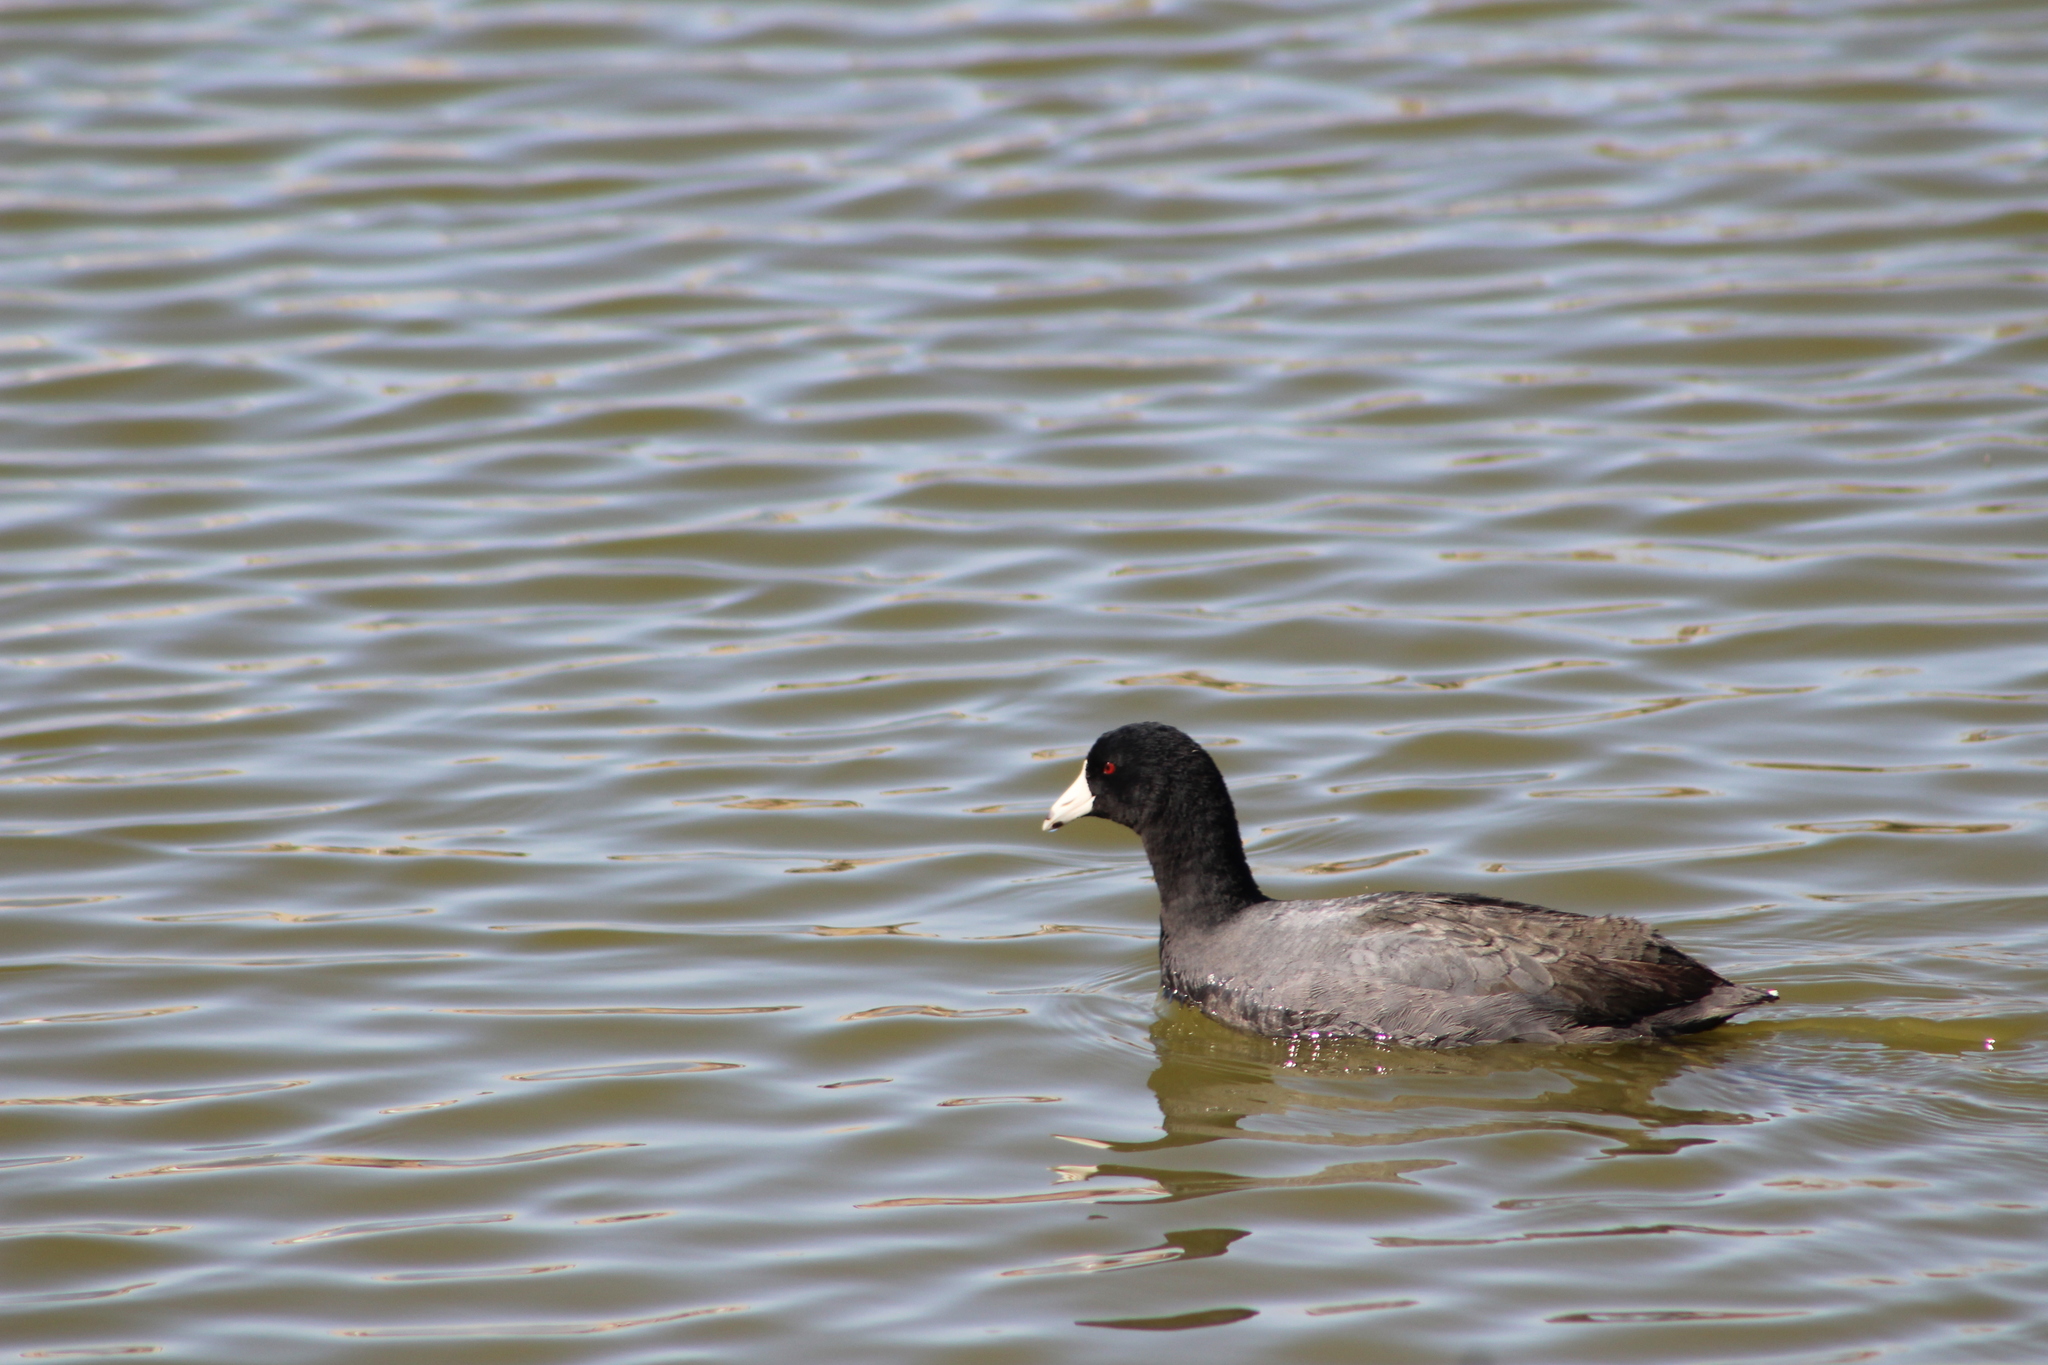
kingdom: Animalia
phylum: Chordata
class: Aves
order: Gruiformes
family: Rallidae
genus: Fulica
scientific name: Fulica americana
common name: American coot
